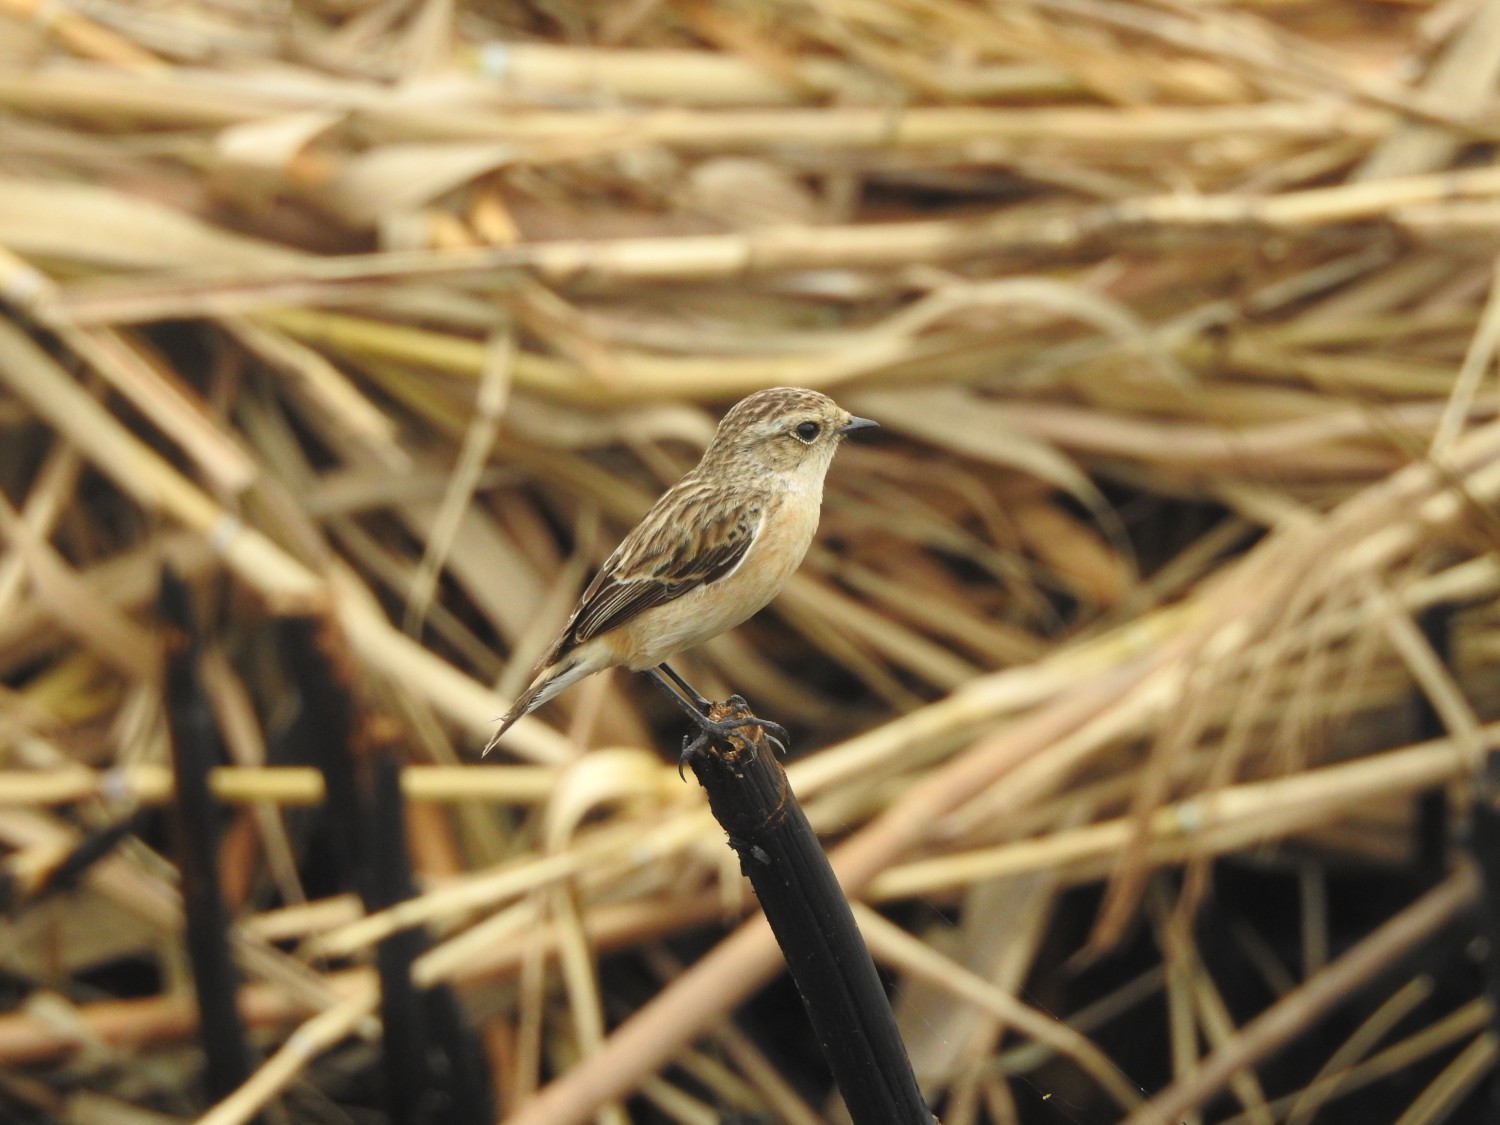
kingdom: Animalia
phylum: Chordata
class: Aves
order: Passeriformes
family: Muscicapidae
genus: Saxicola
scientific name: Saxicola maurus
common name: Siberian stonechat
